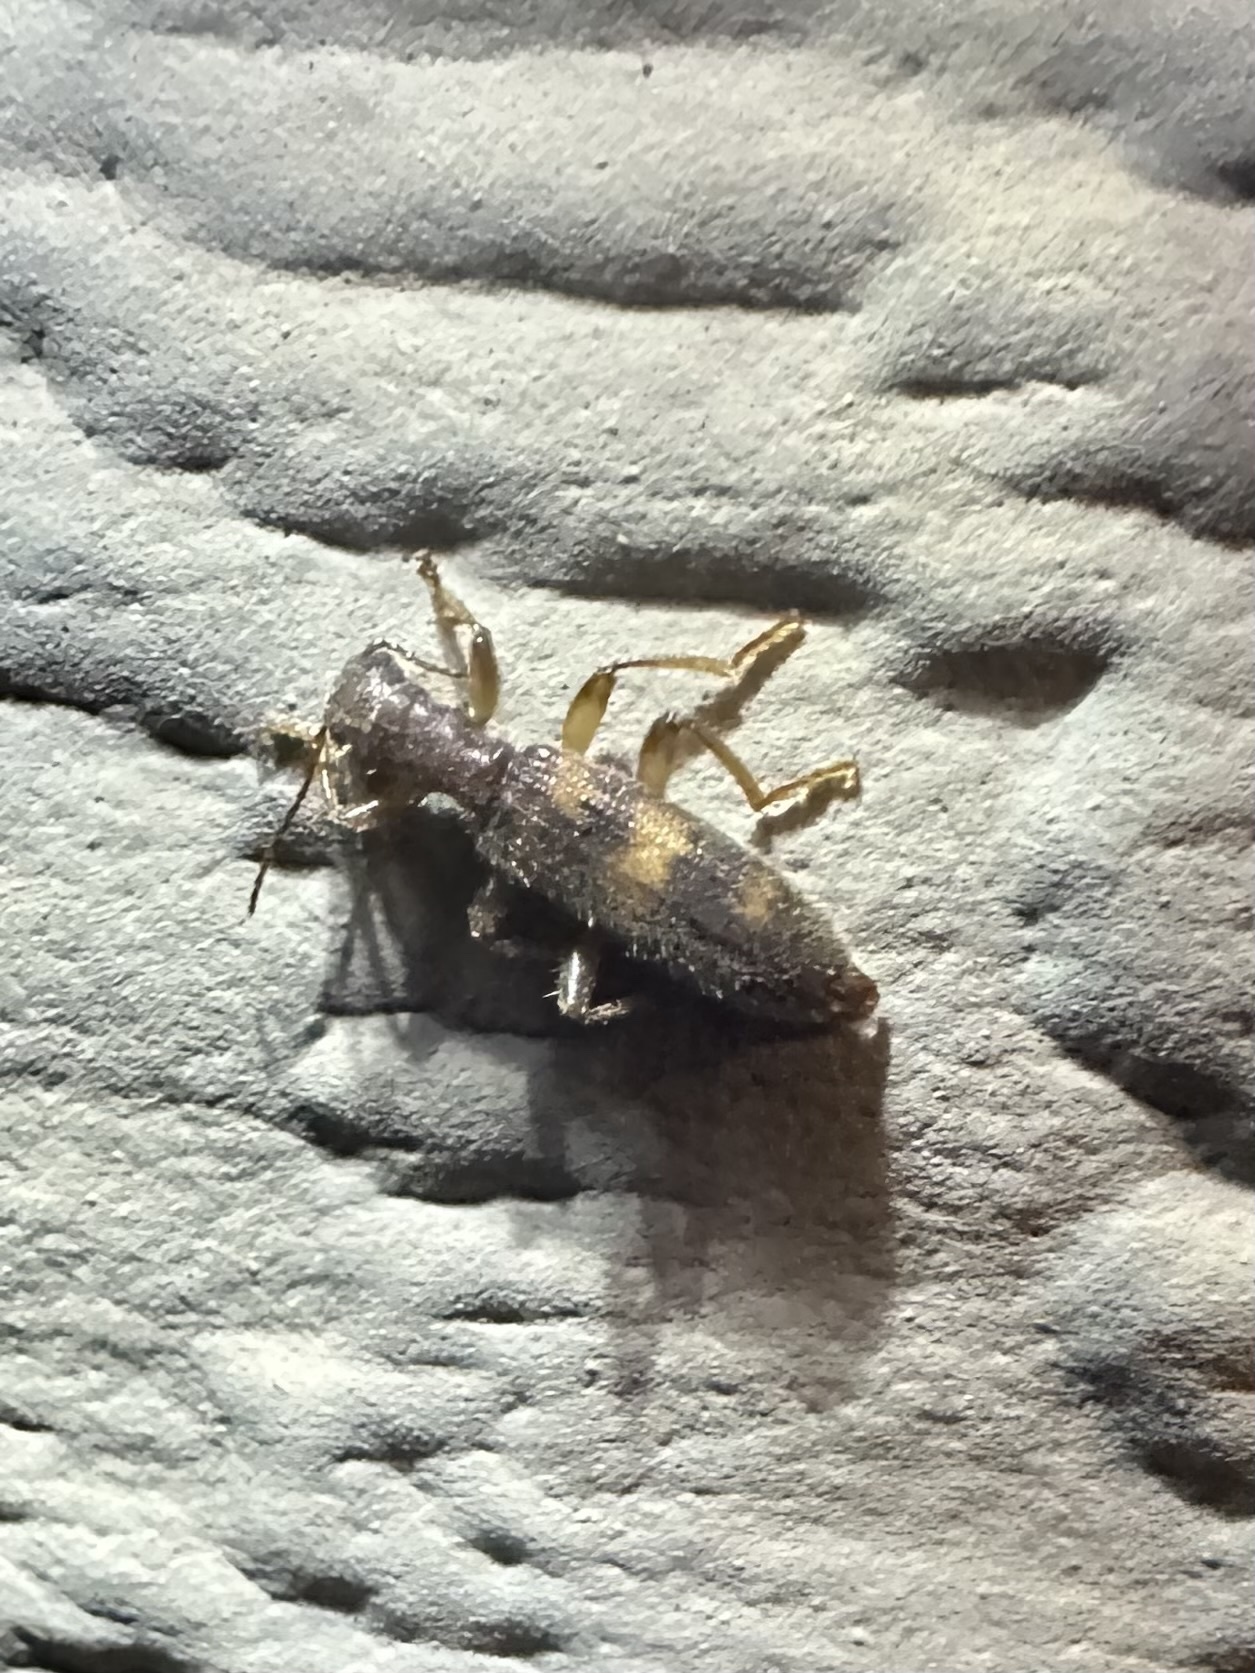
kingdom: Animalia
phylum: Arthropoda
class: Insecta
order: Coleoptera
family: Cleridae
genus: Cymatodera
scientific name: Cymatodera undulata
